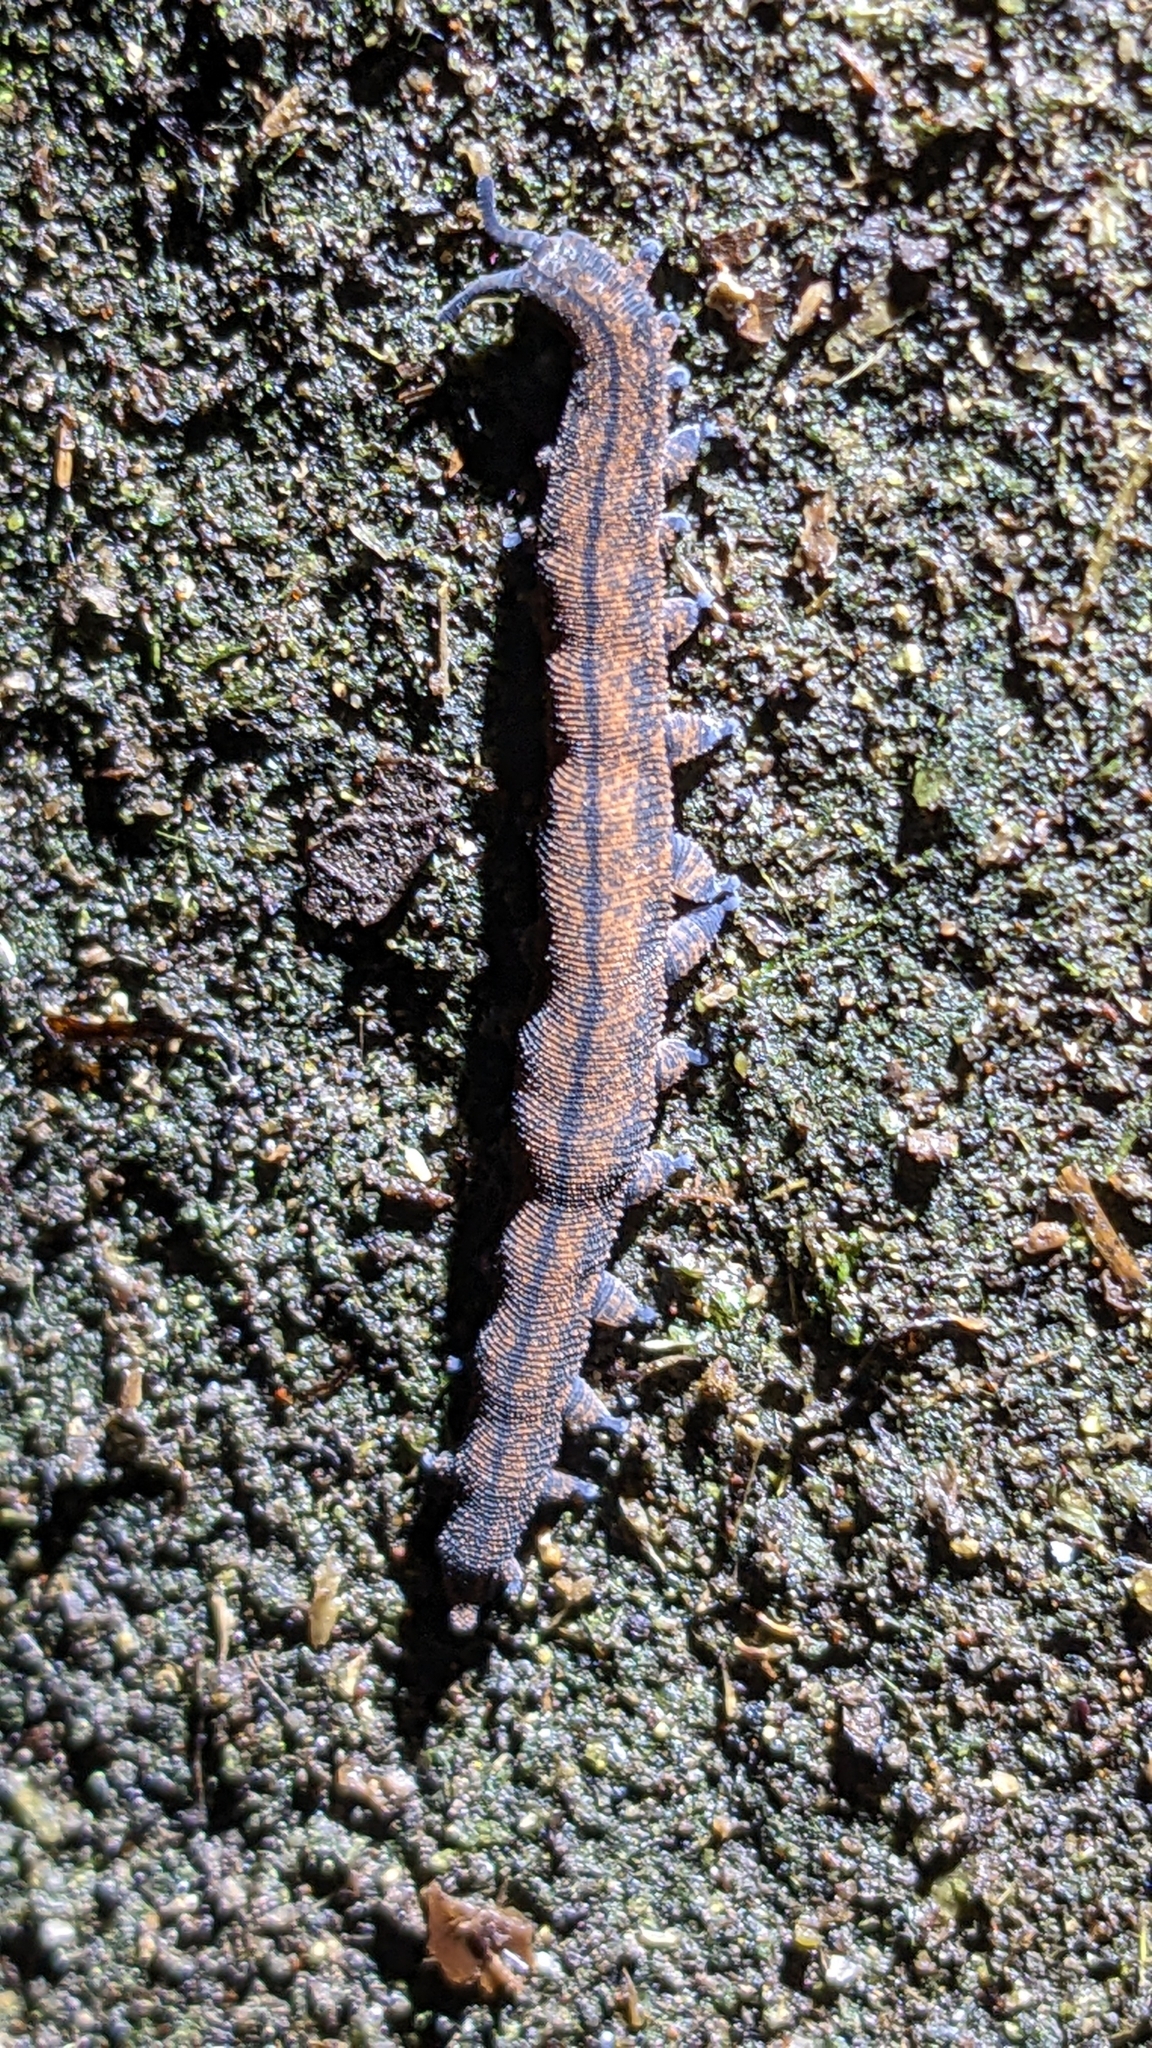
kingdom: Animalia
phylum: Onychophora
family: Peripatopsidae
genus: Peripatoides
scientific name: Peripatoides novaezealandiae
